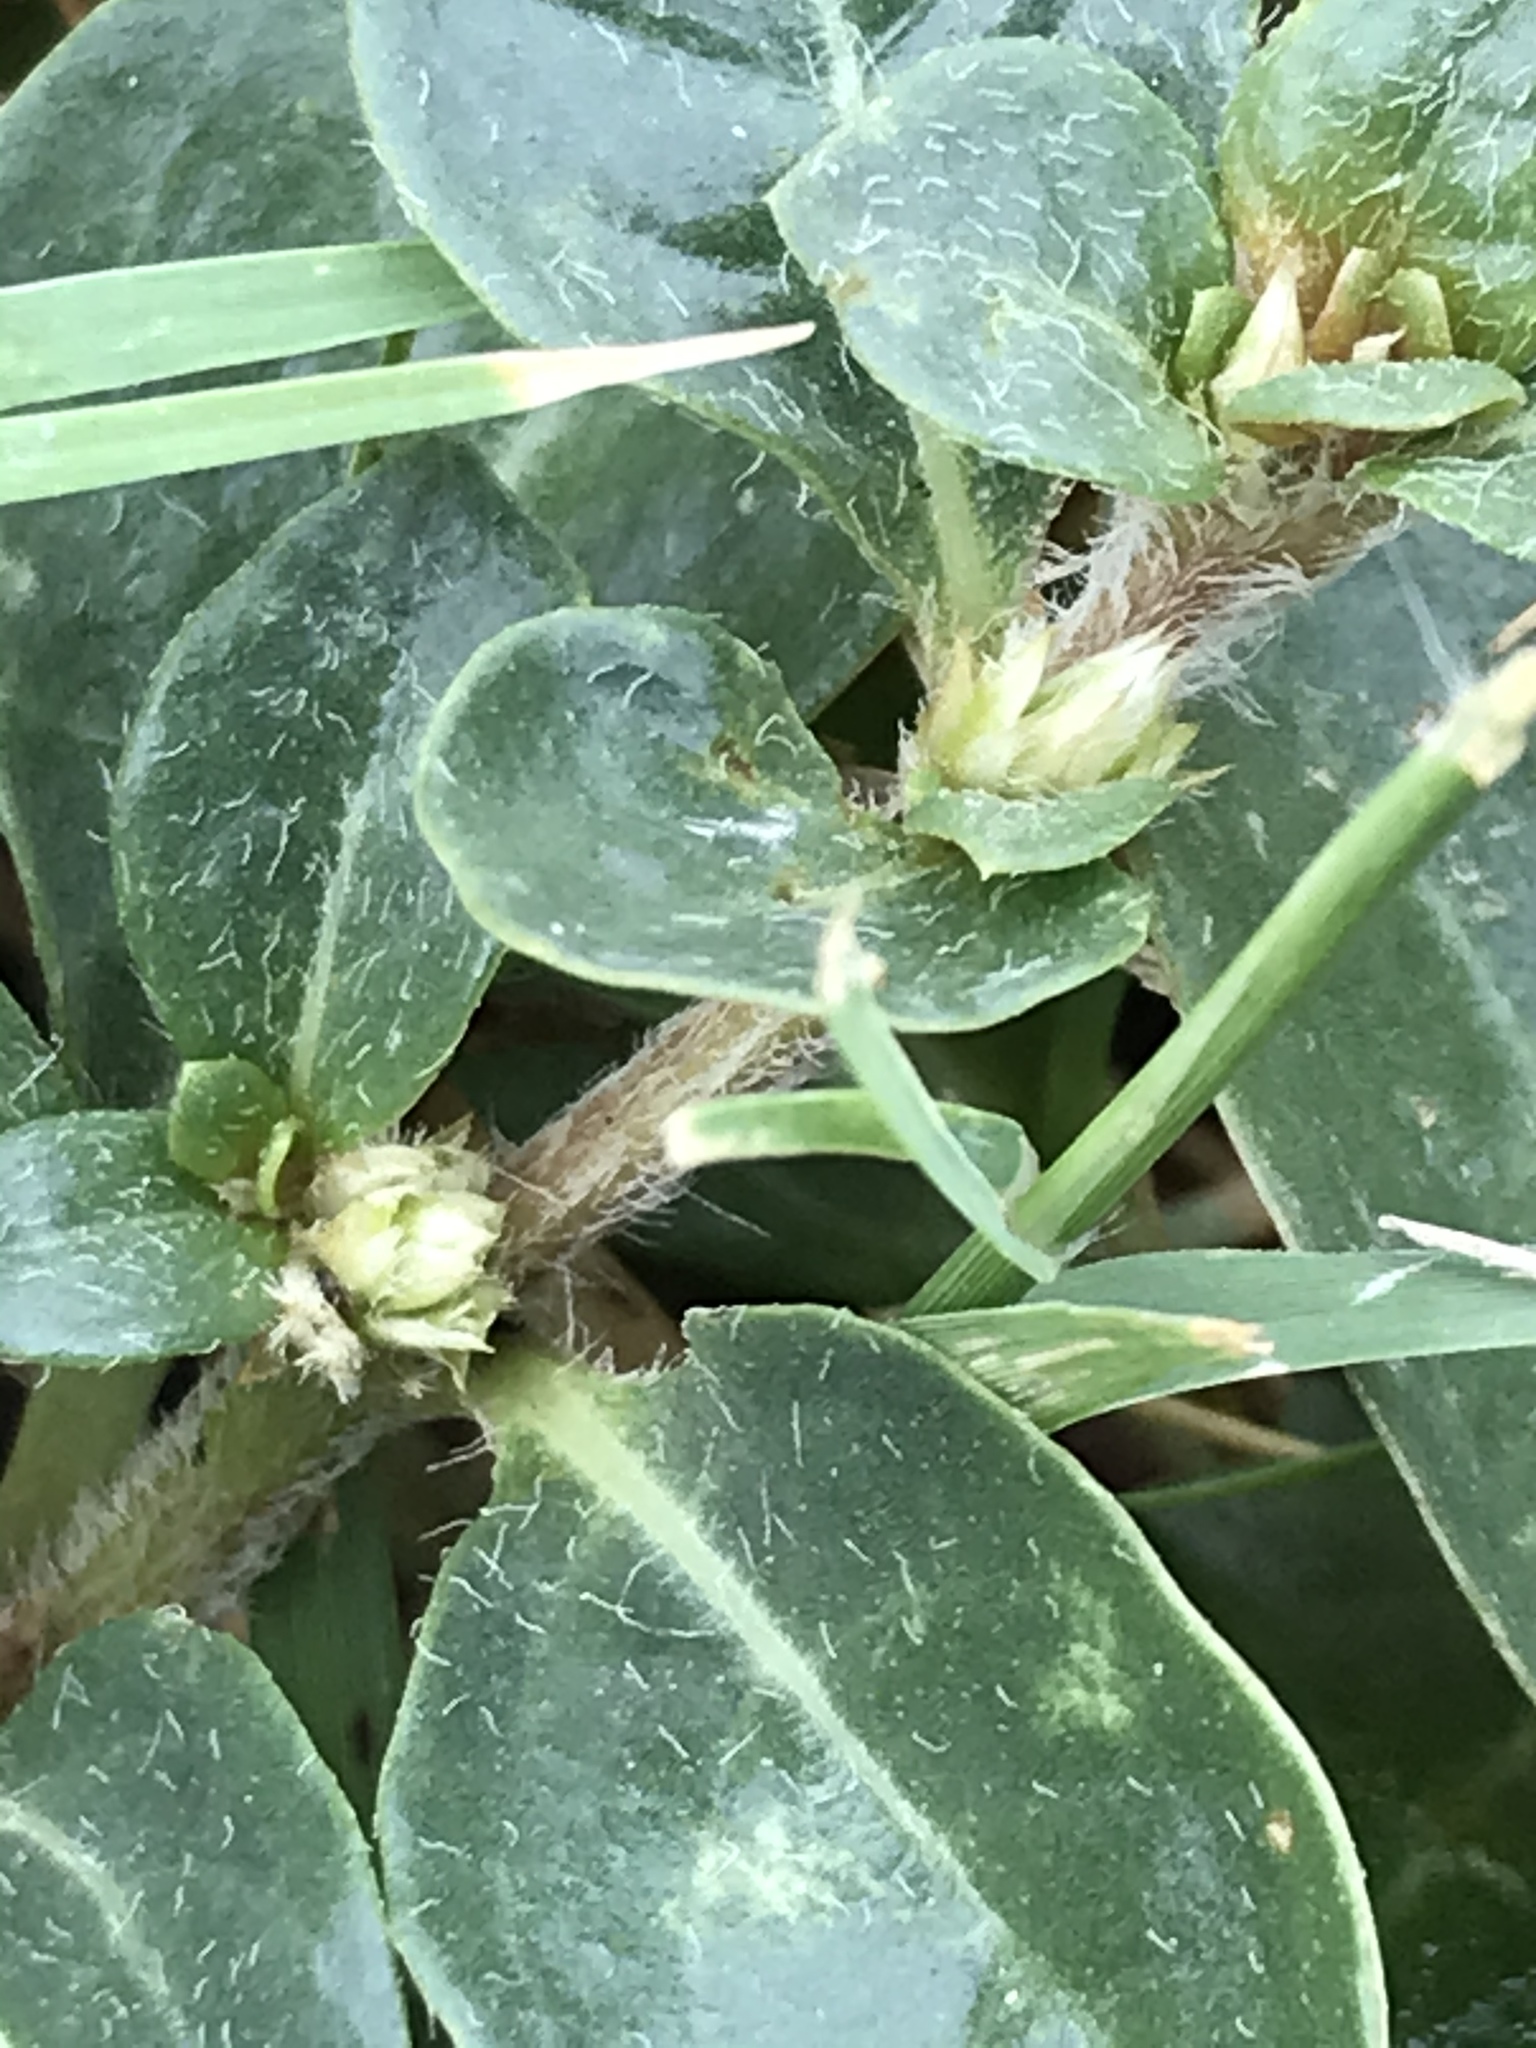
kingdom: Plantae
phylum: Tracheophyta
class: Magnoliopsida
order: Caryophyllales
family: Amaranthaceae
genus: Alternanthera
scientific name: Alternanthera caracasana
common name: Washerwoman
